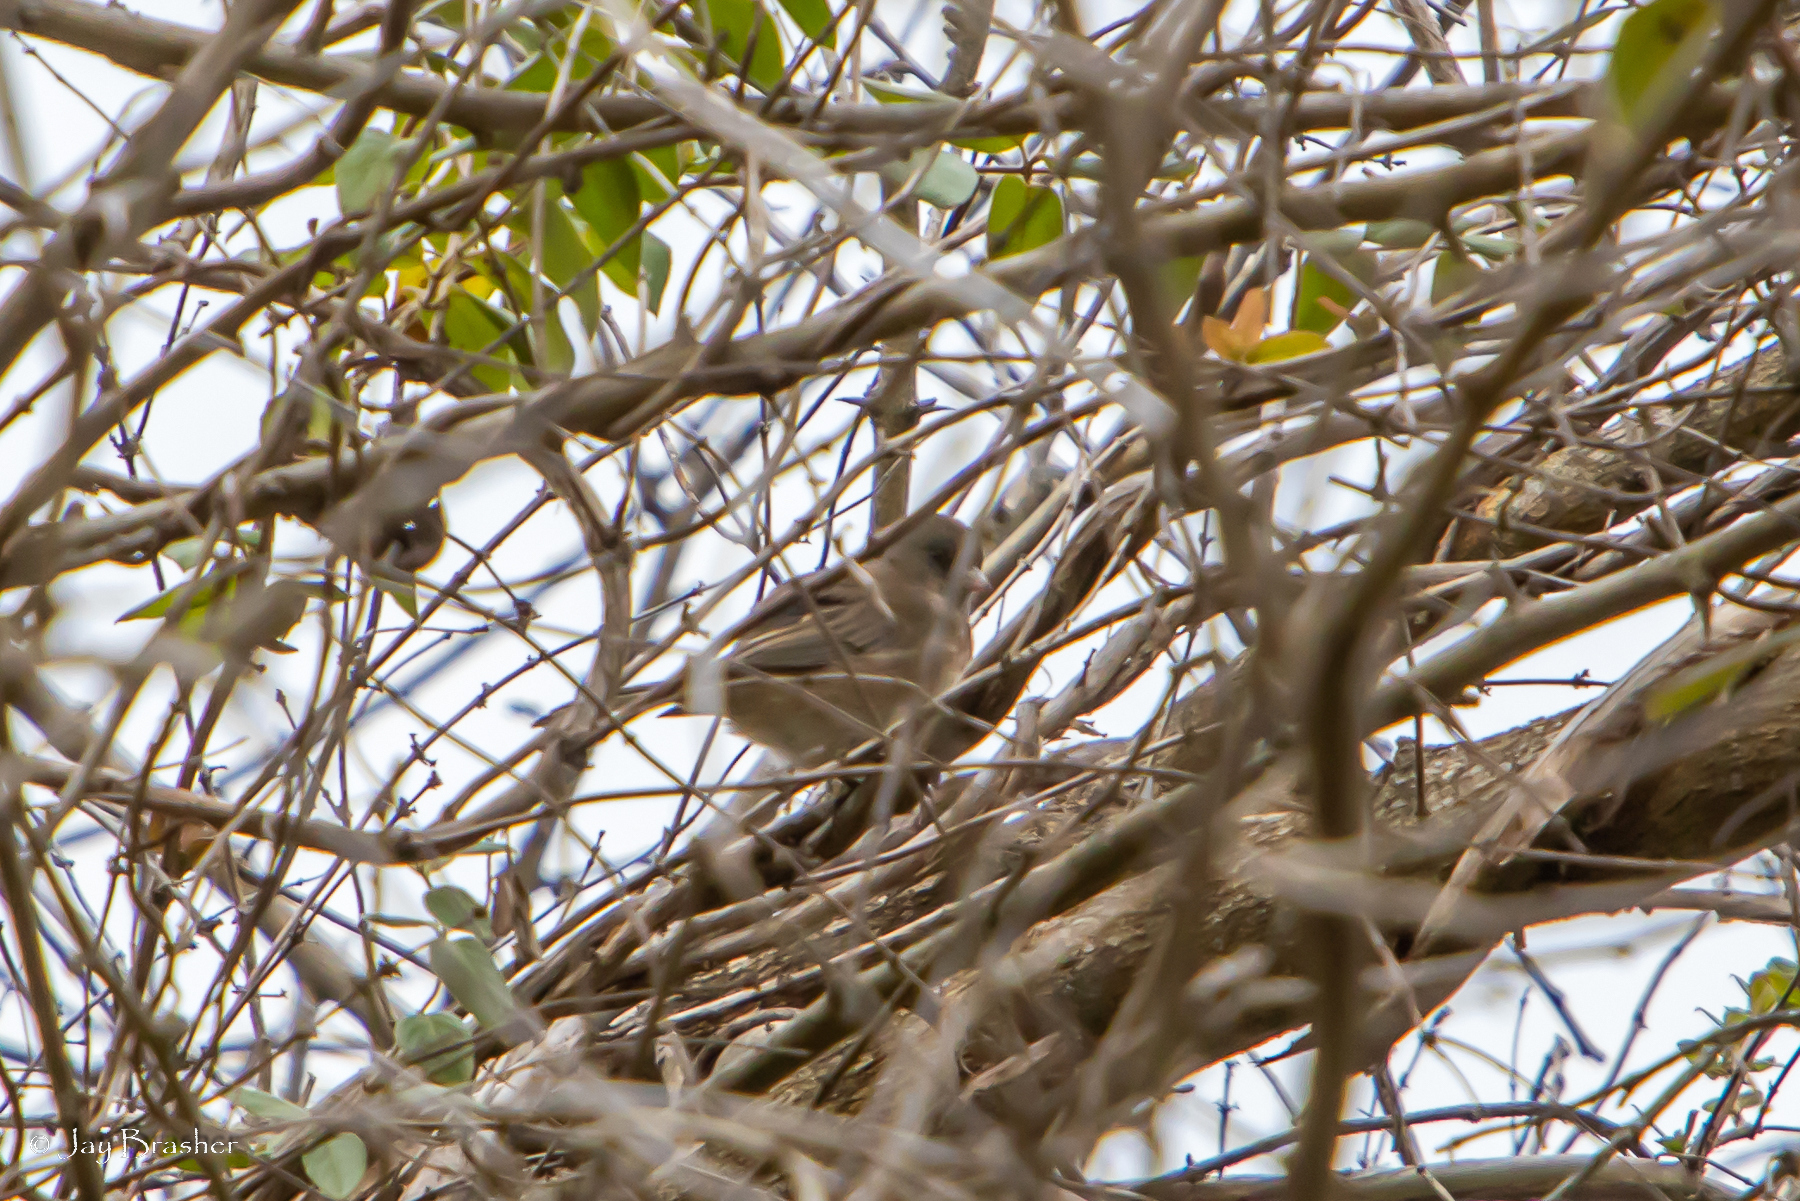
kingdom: Animalia
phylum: Chordata
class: Aves
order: Passeriformes
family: Passerellidae
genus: Junco
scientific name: Junco hyemalis
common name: Dark-eyed junco
